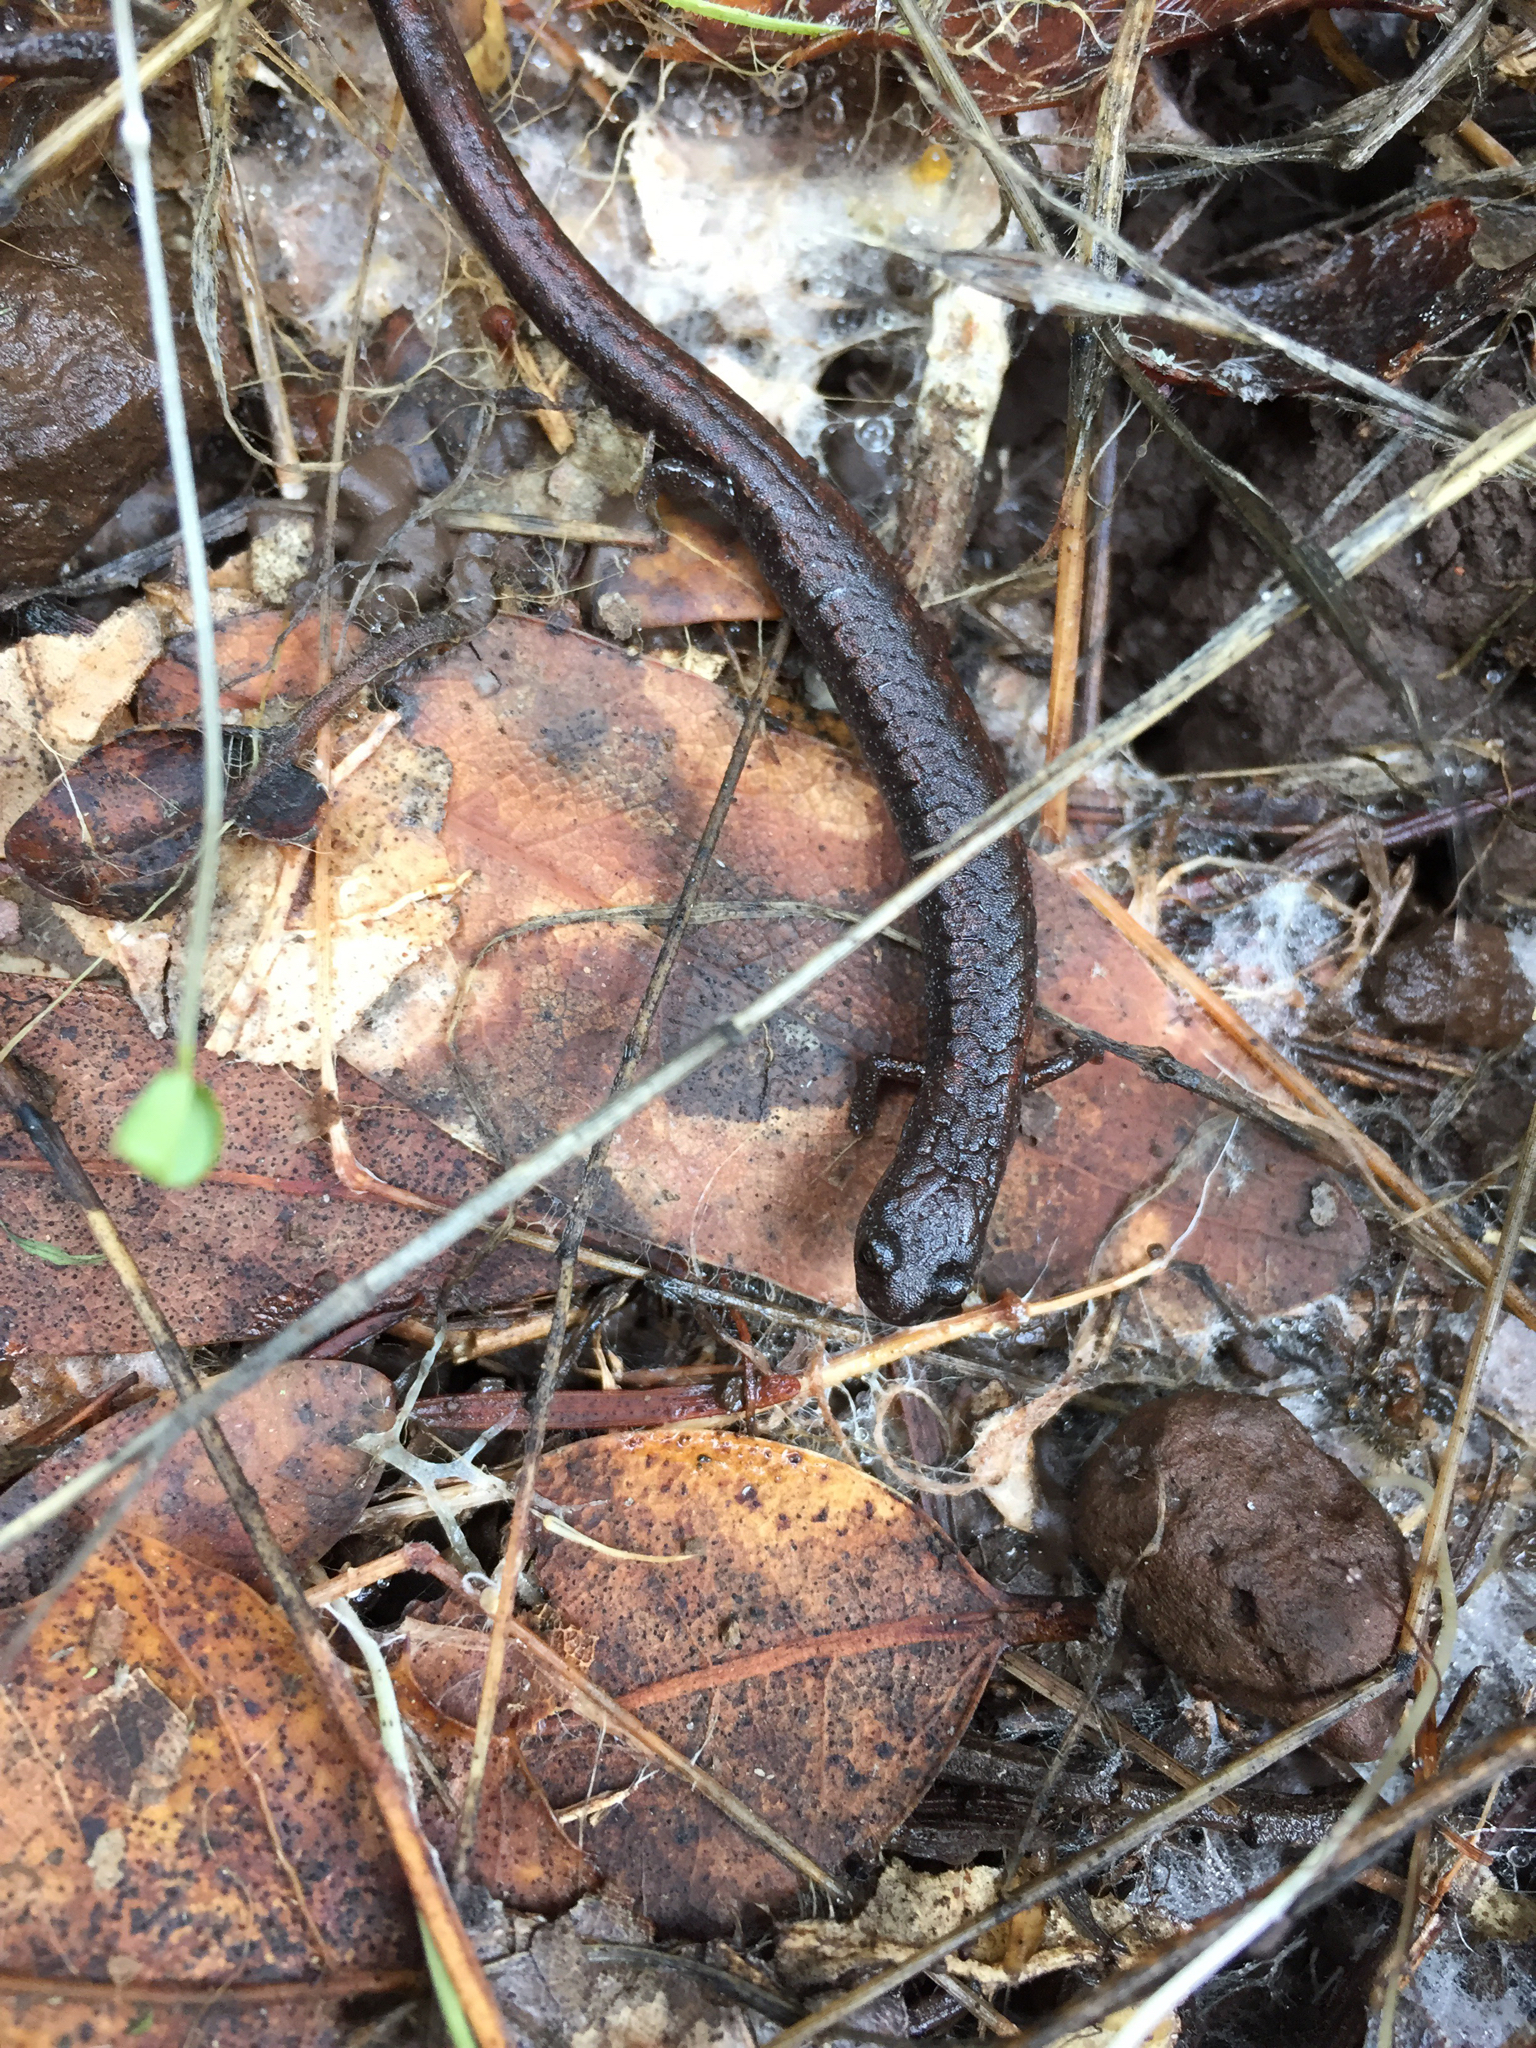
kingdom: Animalia
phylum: Chordata
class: Amphibia
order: Caudata
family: Plethodontidae
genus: Batrachoseps
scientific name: Batrachoseps attenuatus
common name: California slender salamander
